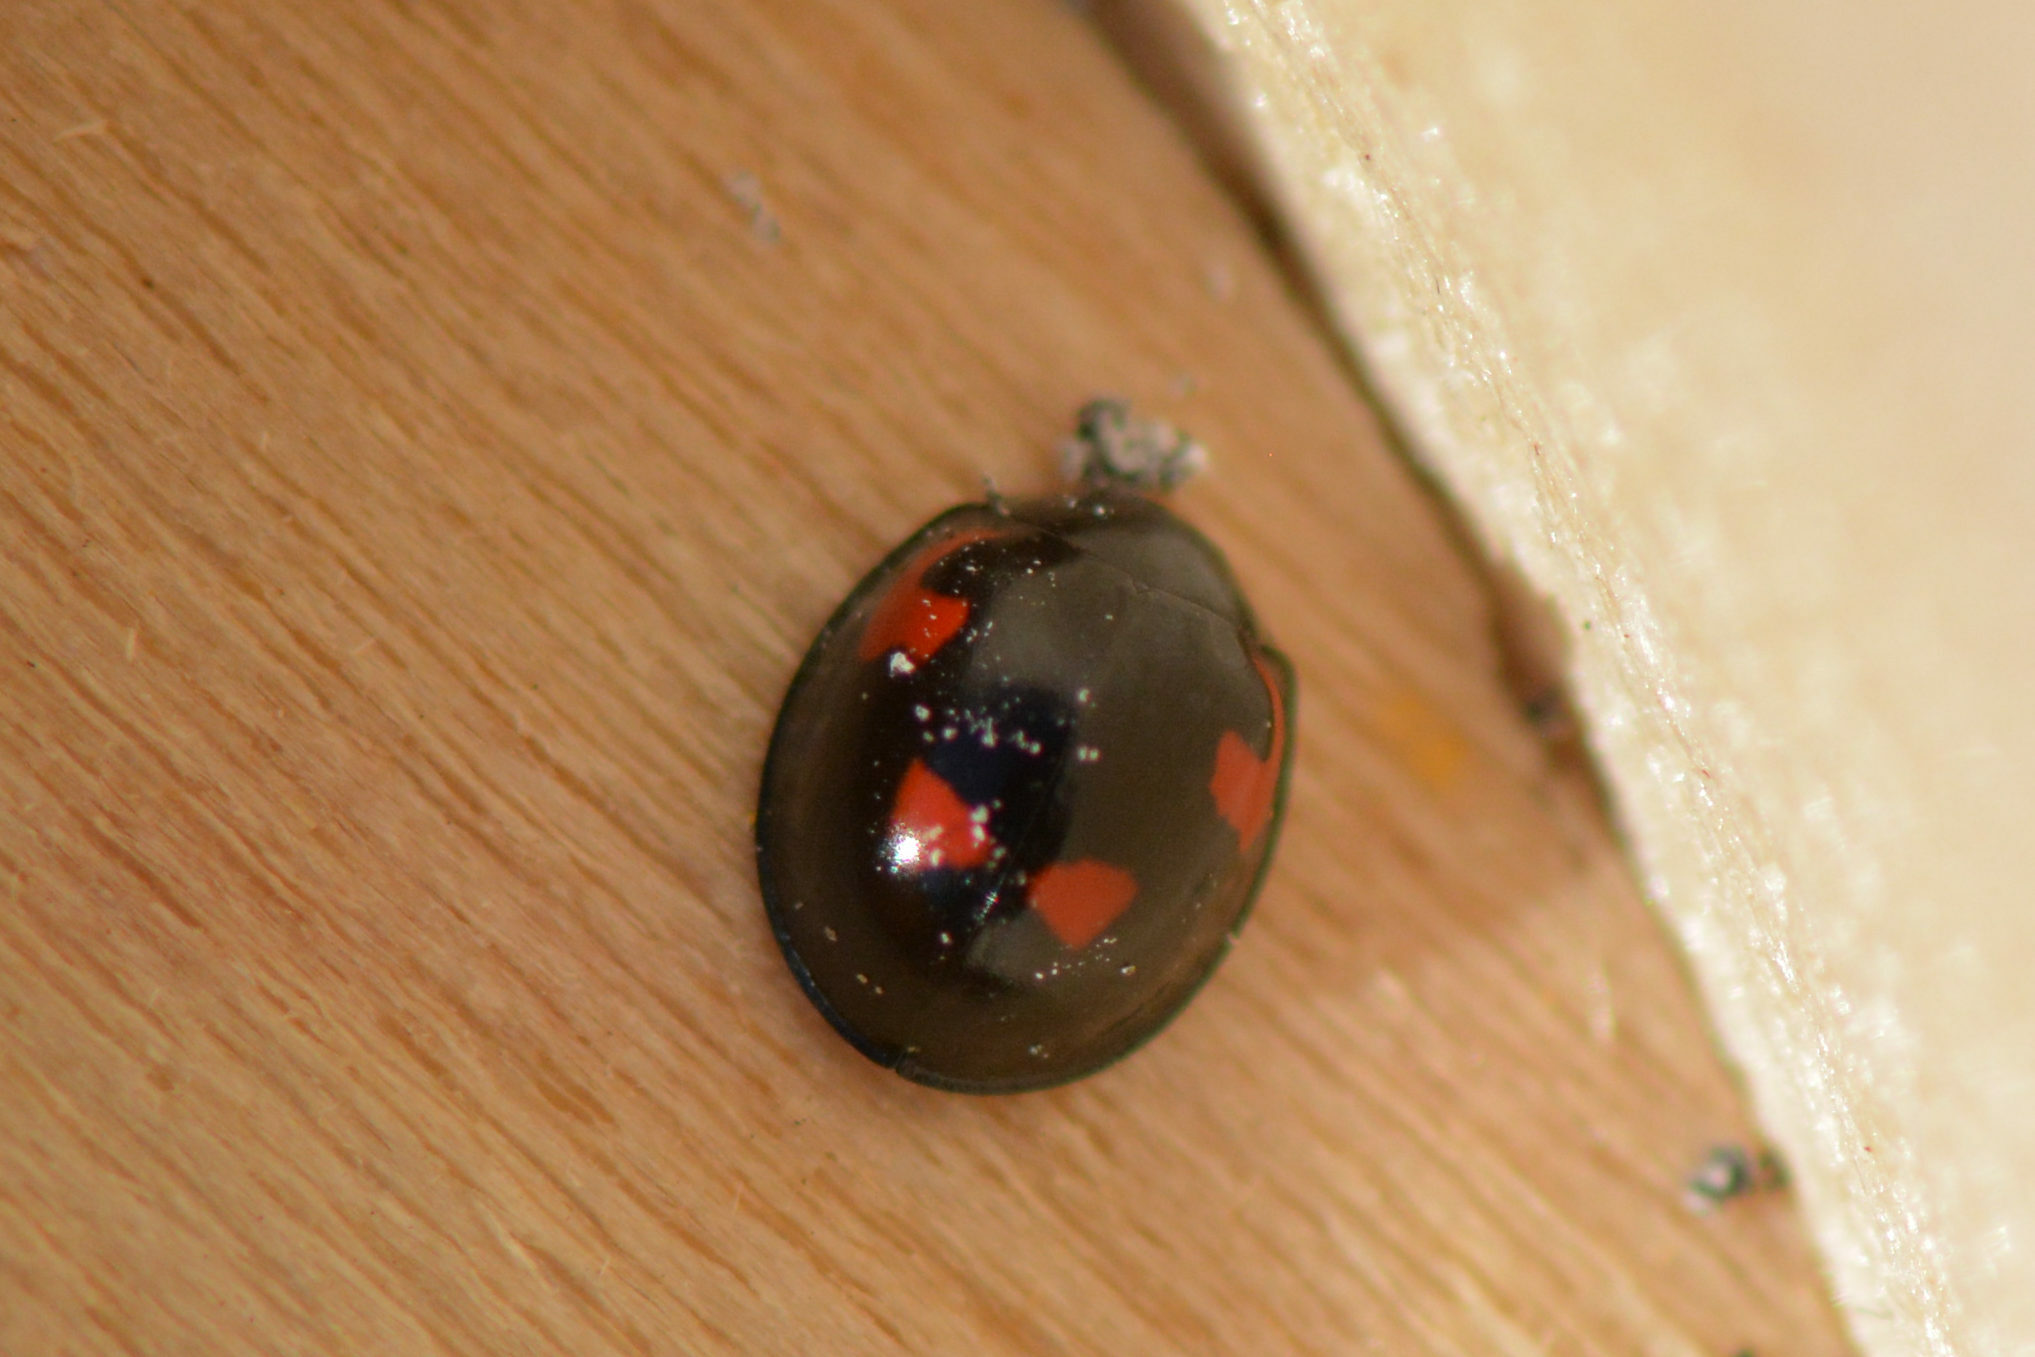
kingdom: Animalia
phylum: Arthropoda
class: Insecta
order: Coleoptera
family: Coccinellidae
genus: Brumus
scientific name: Brumus quadripustulatus
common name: Ladybird beetle
